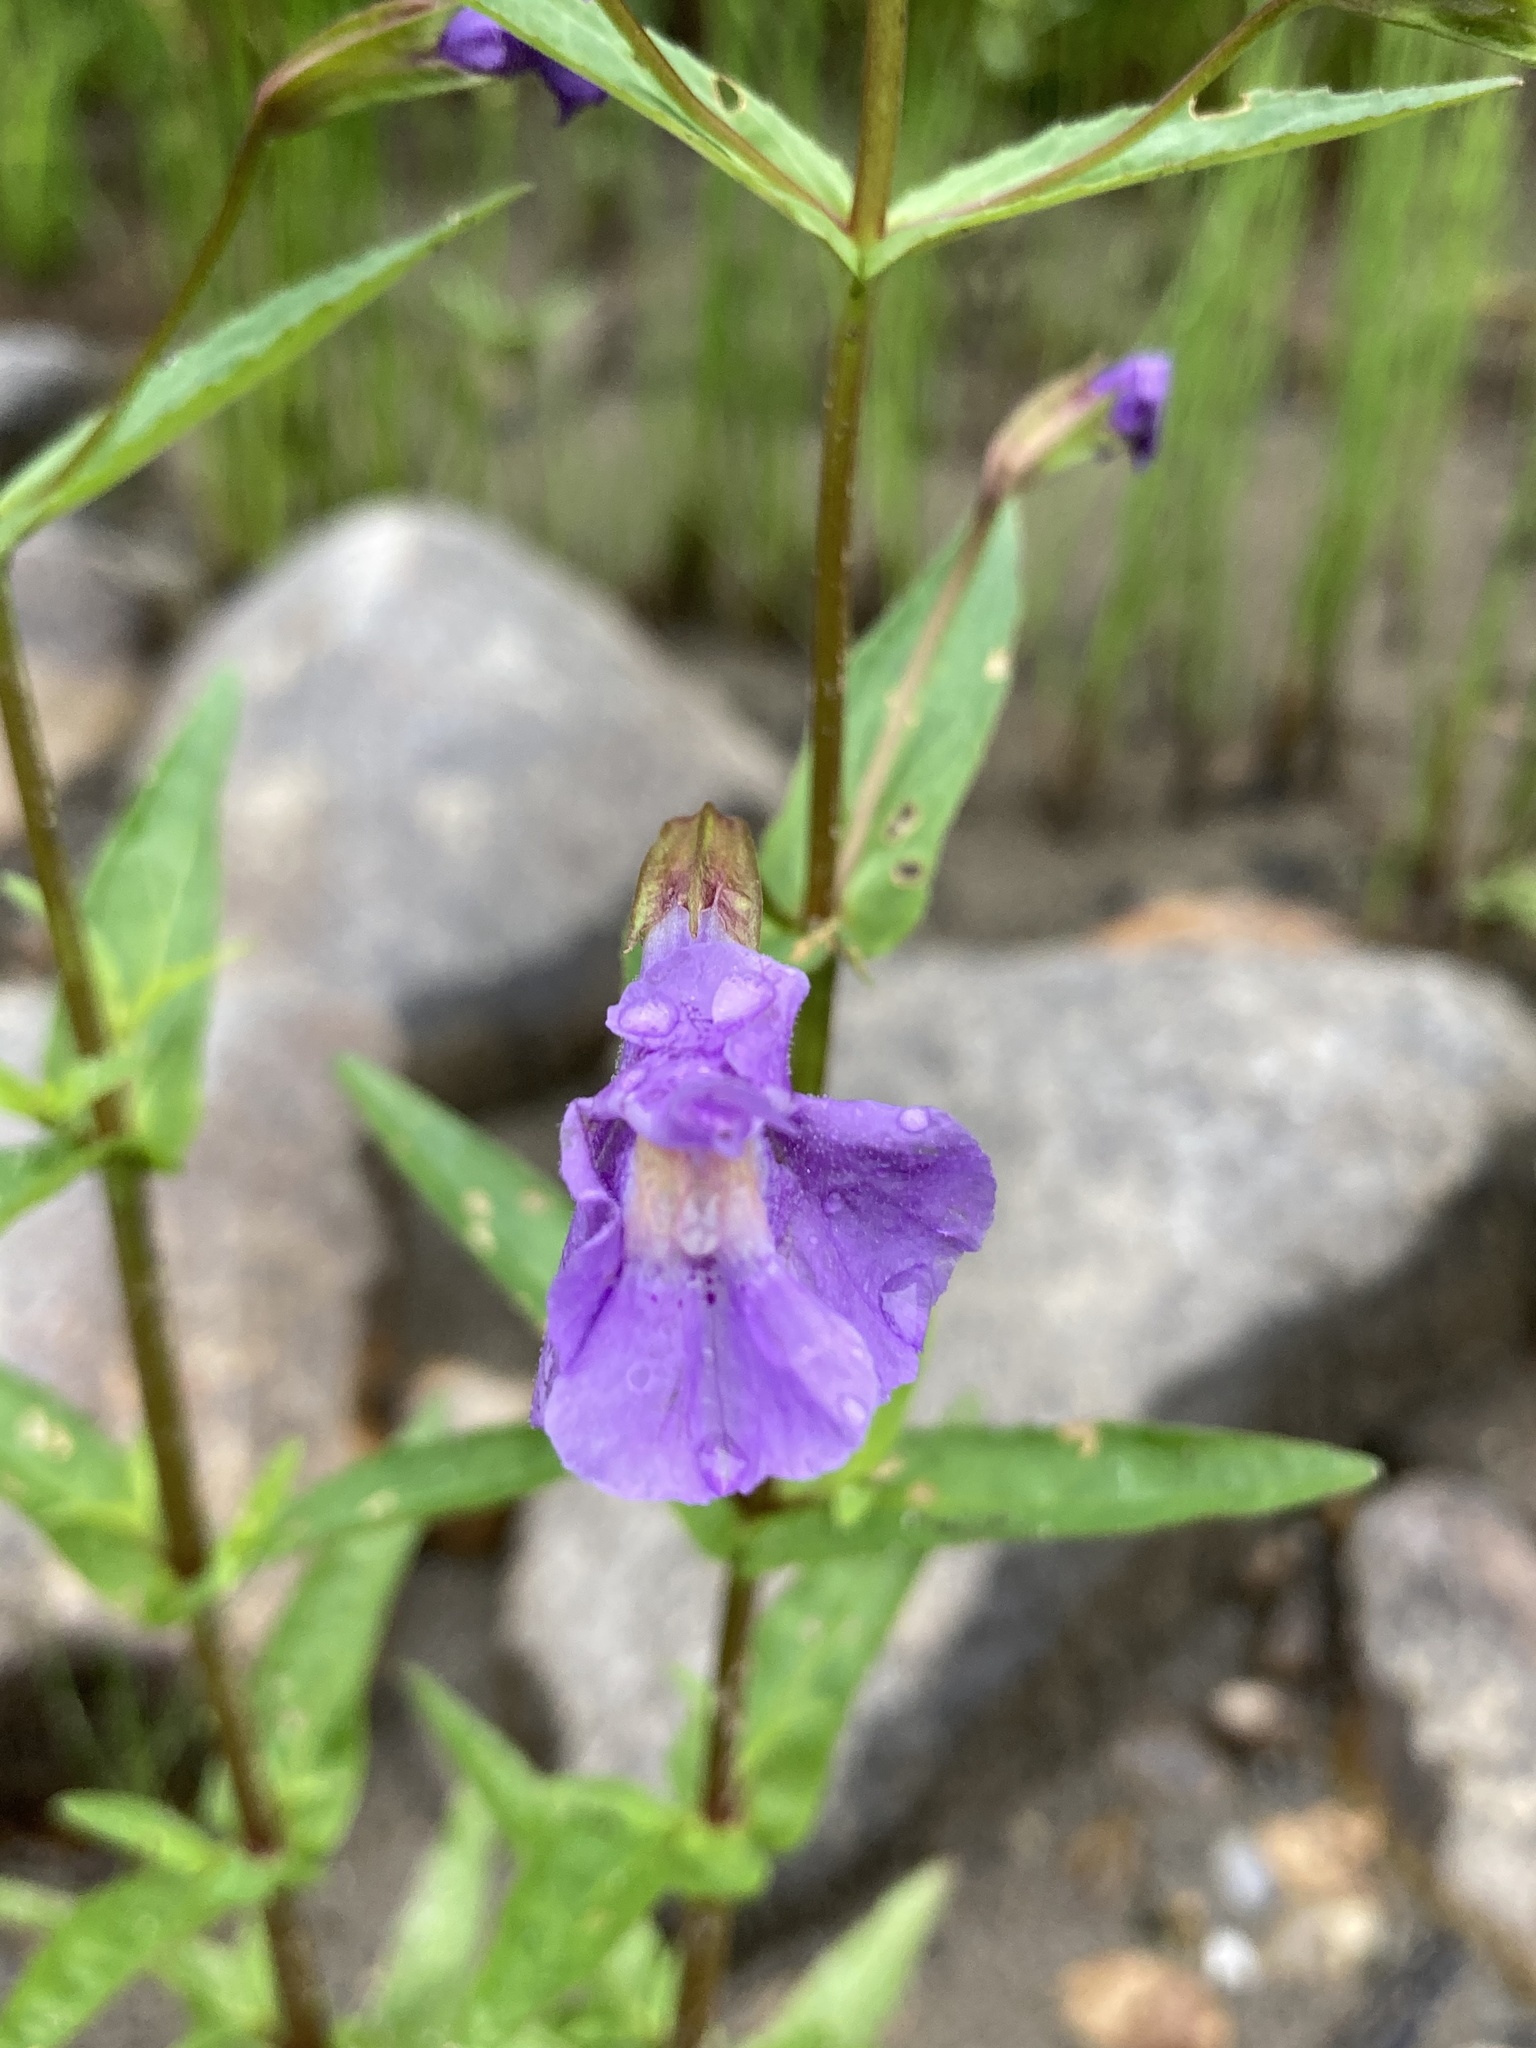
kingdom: Plantae
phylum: Tracheophyta
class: Magnoliopsida
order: Lamiales
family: Phrymaceae
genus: Mimulus
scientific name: Mimulus ringens
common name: Allegheny monkeyflower
